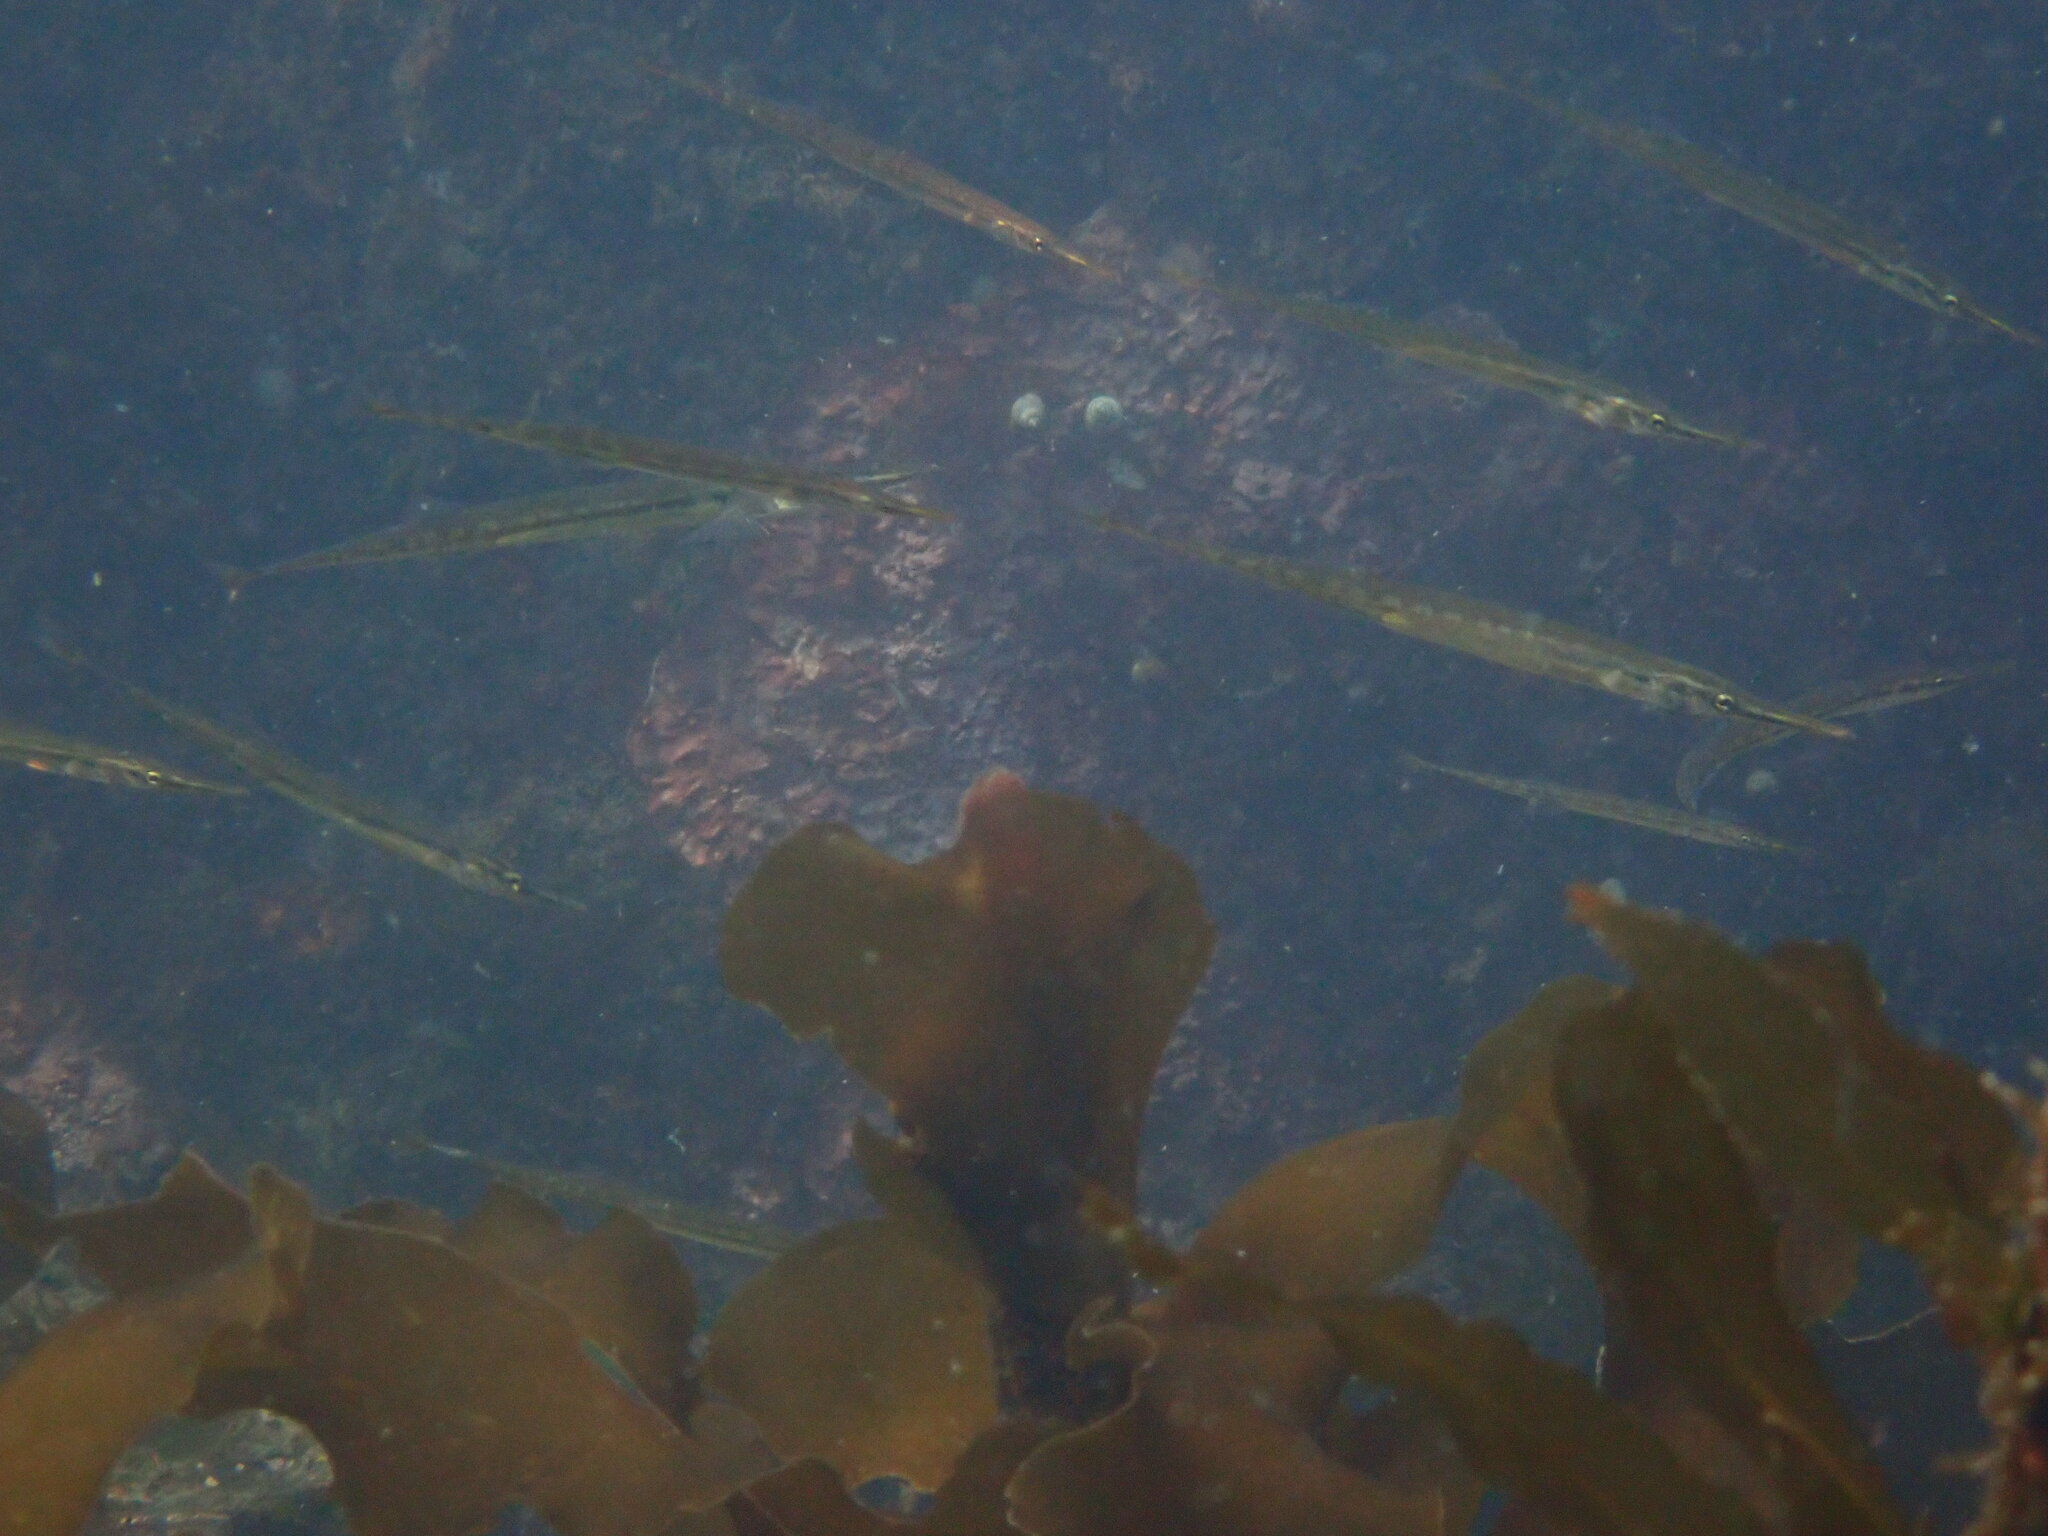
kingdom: Animalia
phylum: Chordata
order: Gasterosteiformes
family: Aulorhynchidae
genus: Aulorhynchus
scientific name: Aulorhynchus flavidus
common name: Tube-snout
